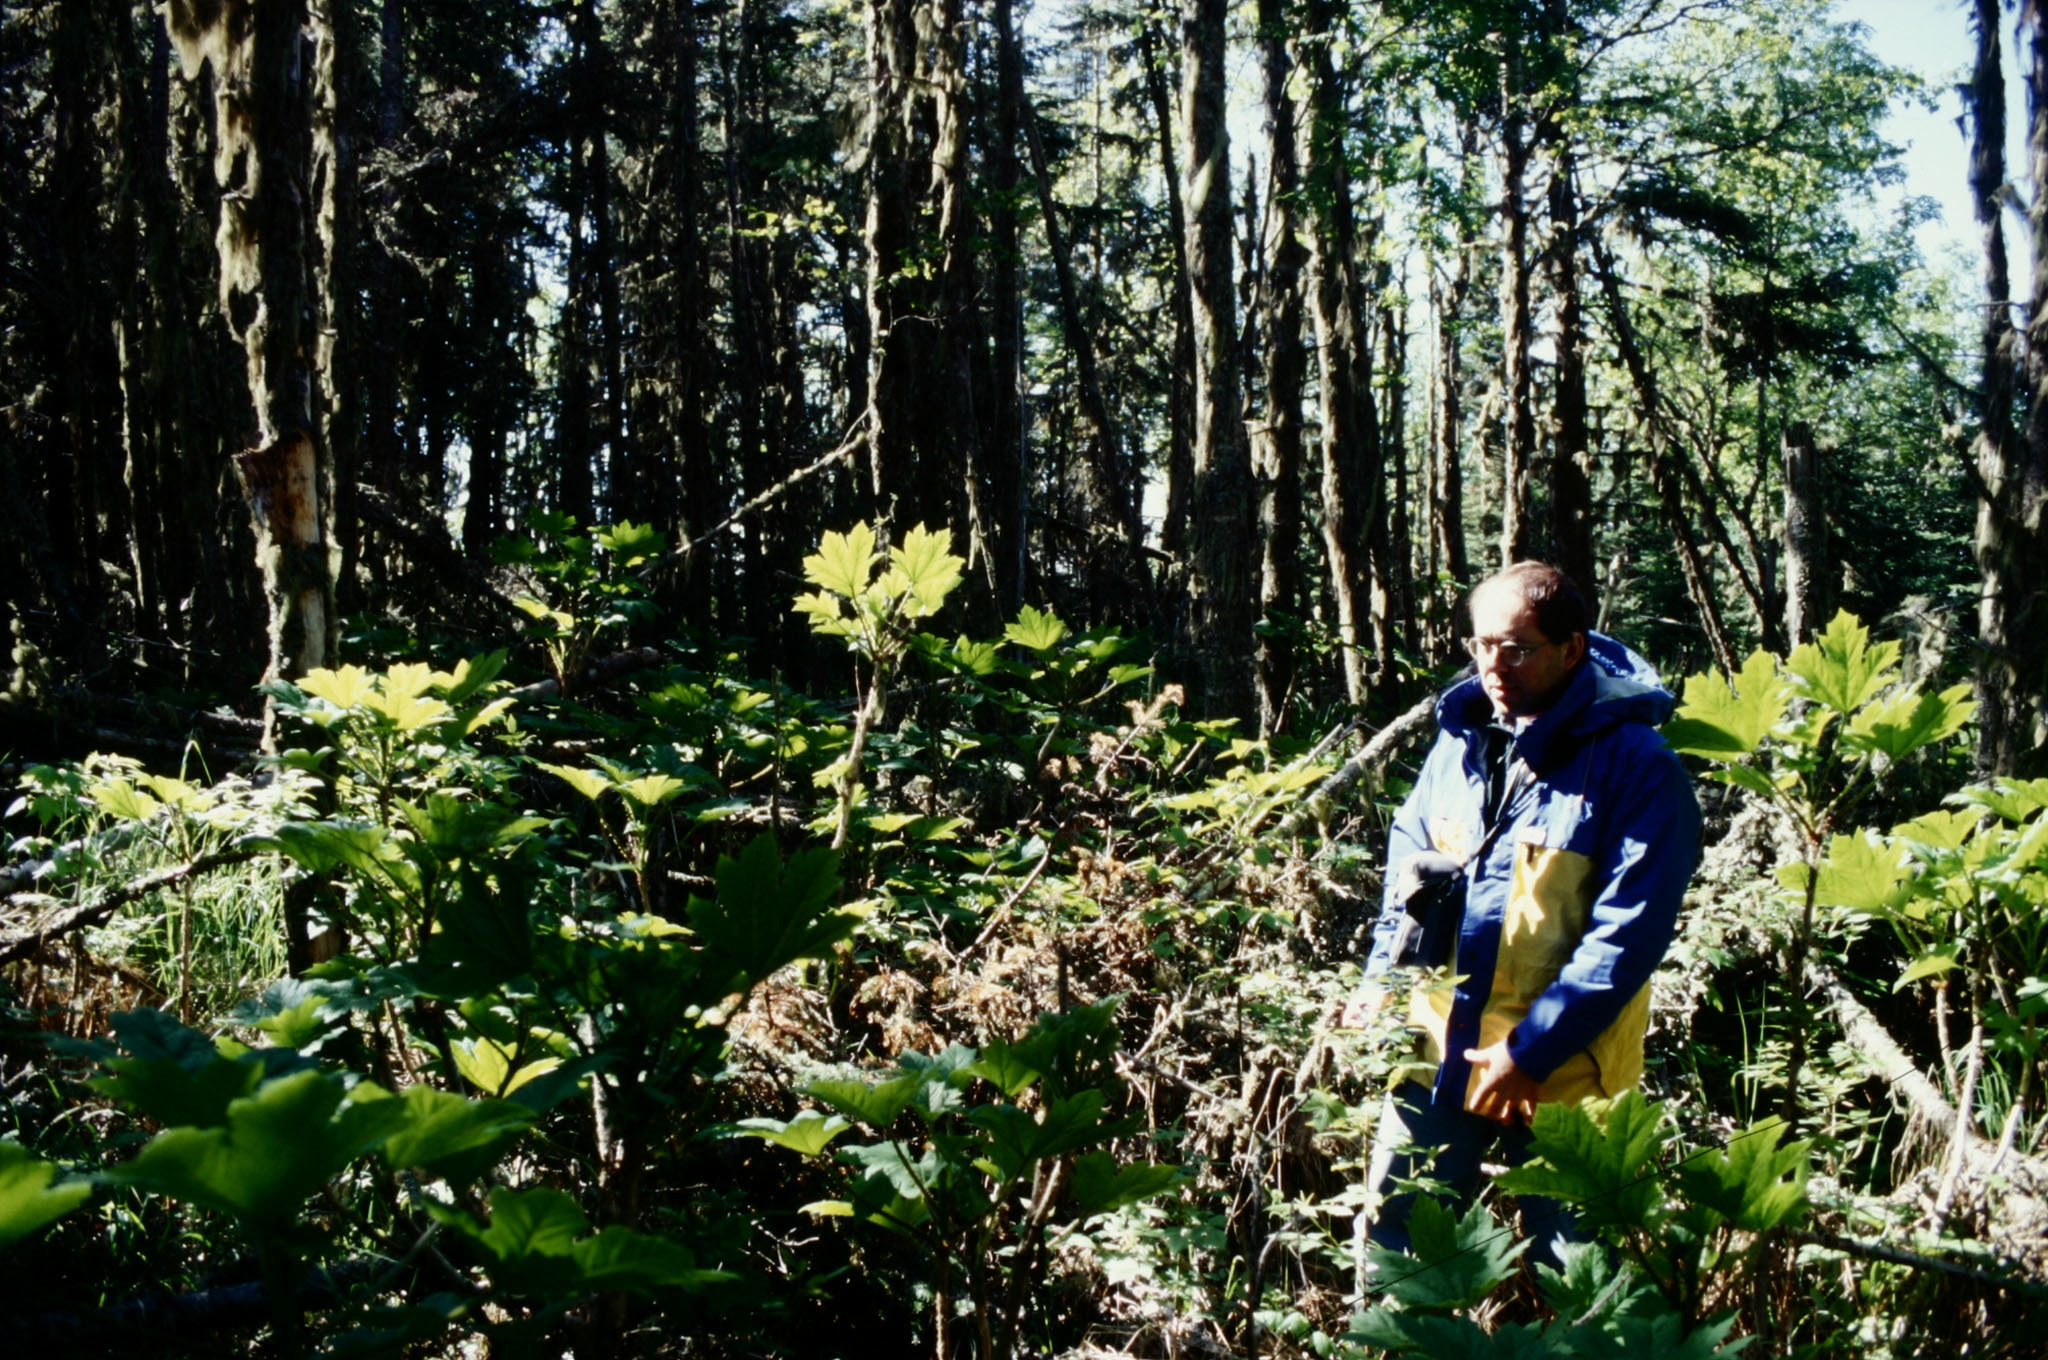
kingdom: Plantae
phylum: Tracheophyta
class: Magnoliopsida
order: Apiales
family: Araliaceae
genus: Oplopanax
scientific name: Oplopanax horridus
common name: Devil's walking-stick
